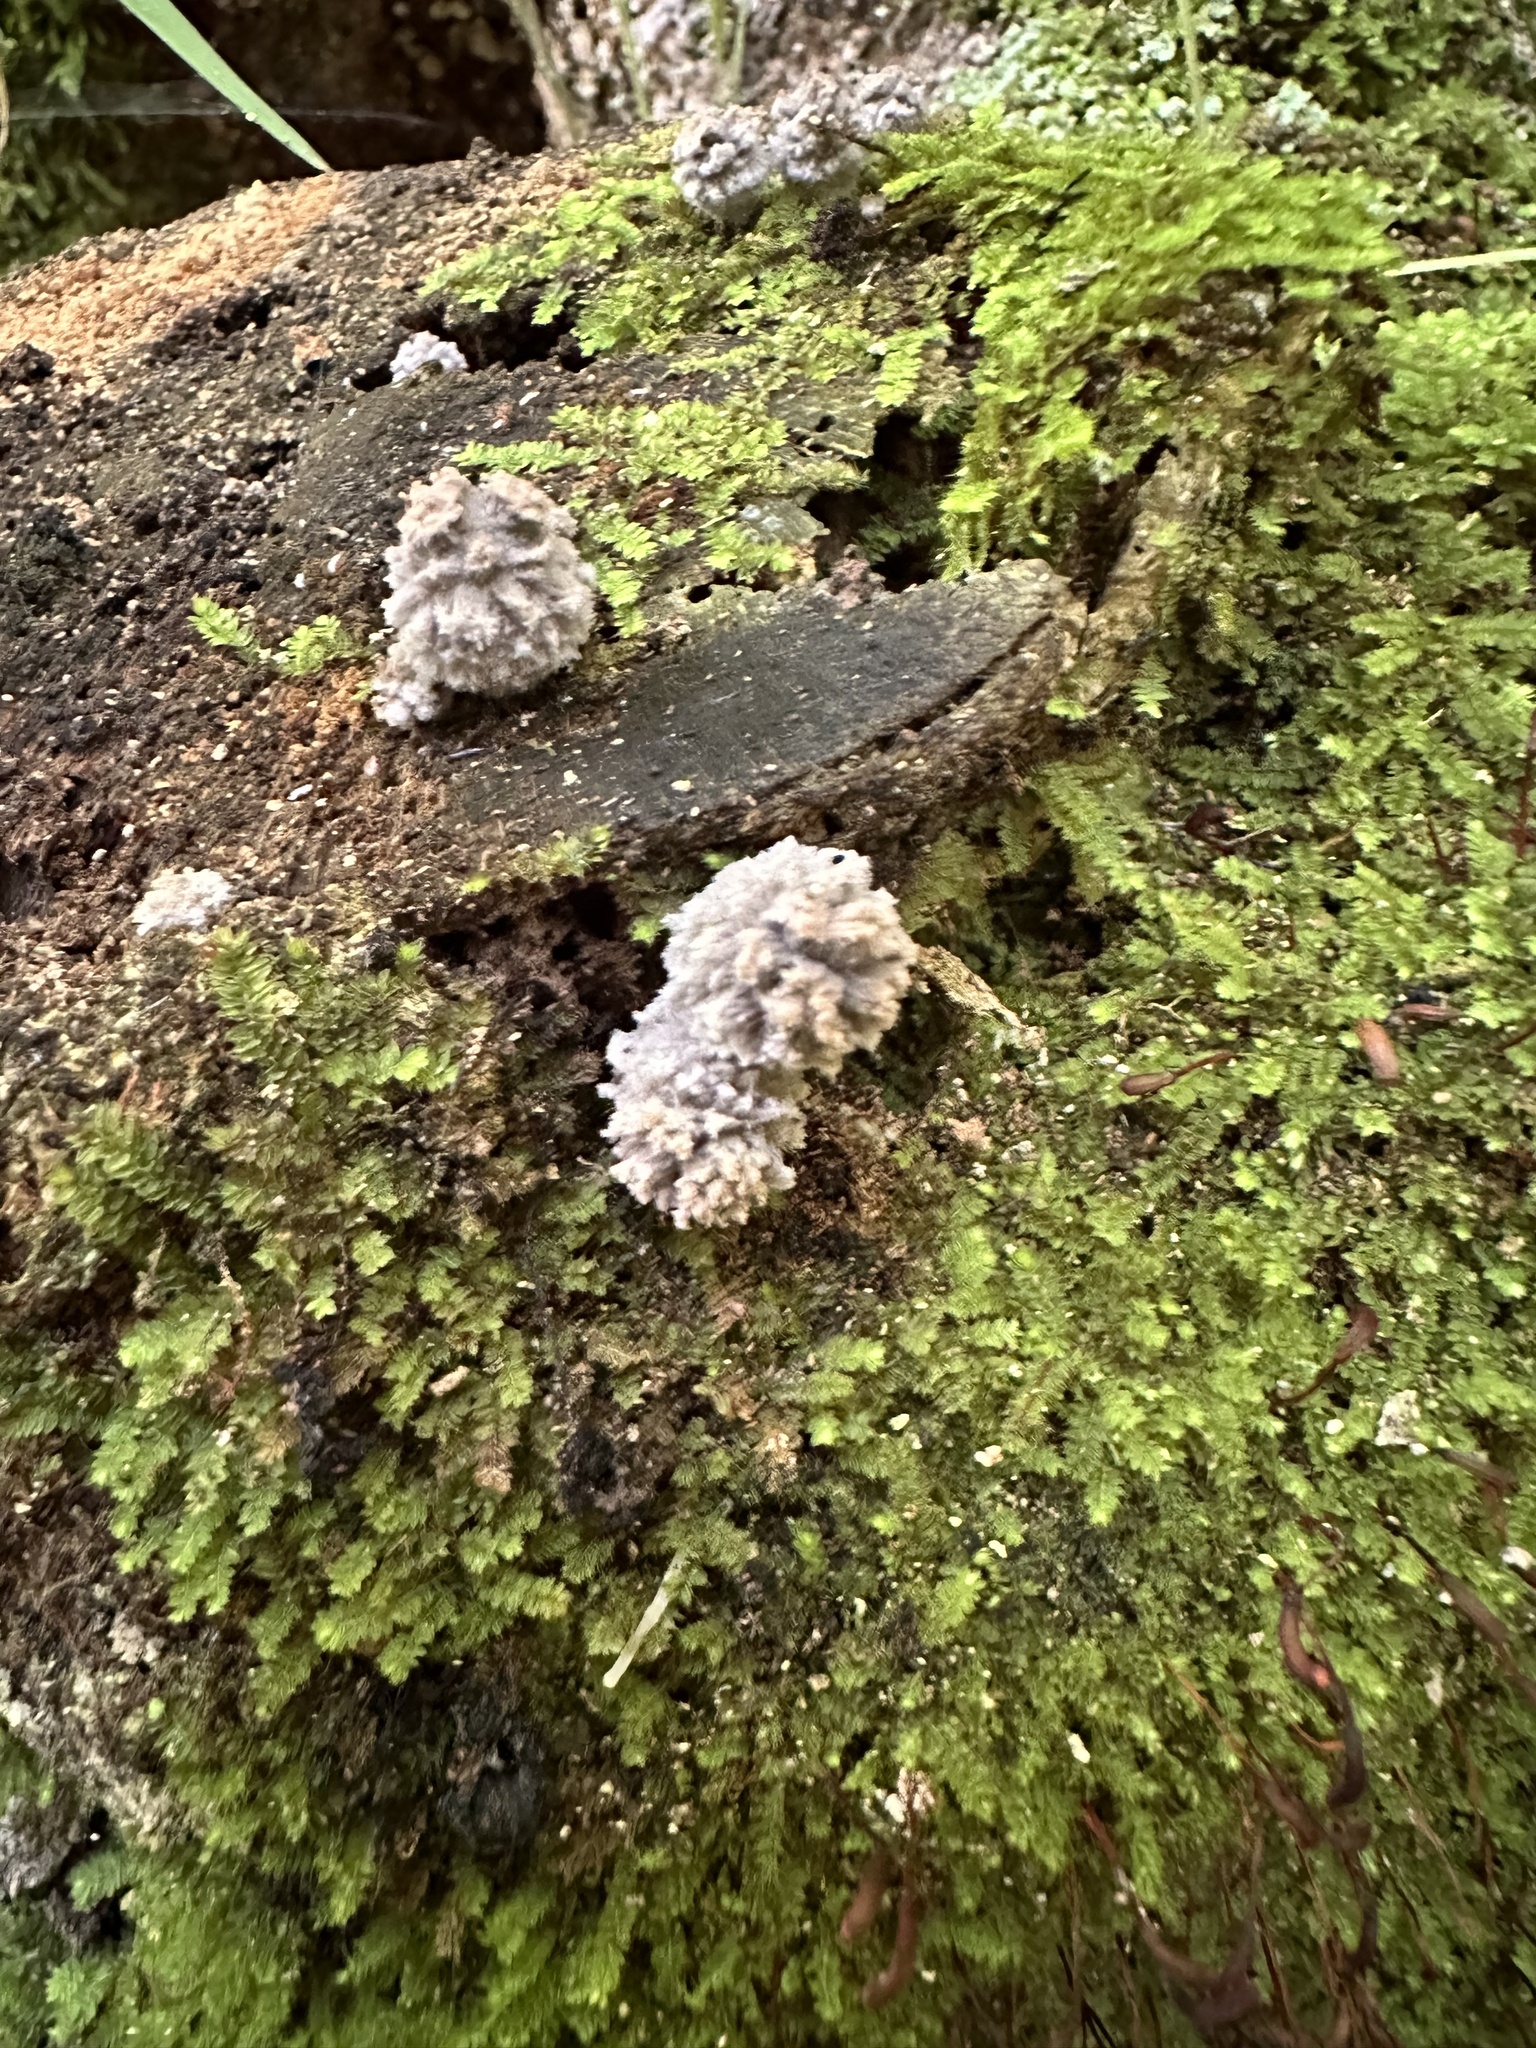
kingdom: Fungi
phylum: Basidiomycota
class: Agaricomycetes
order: Agaricales
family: Psathyrellaceae
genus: Coprinopsis
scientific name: Coprinopsis laanii
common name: Dotty inkcap
